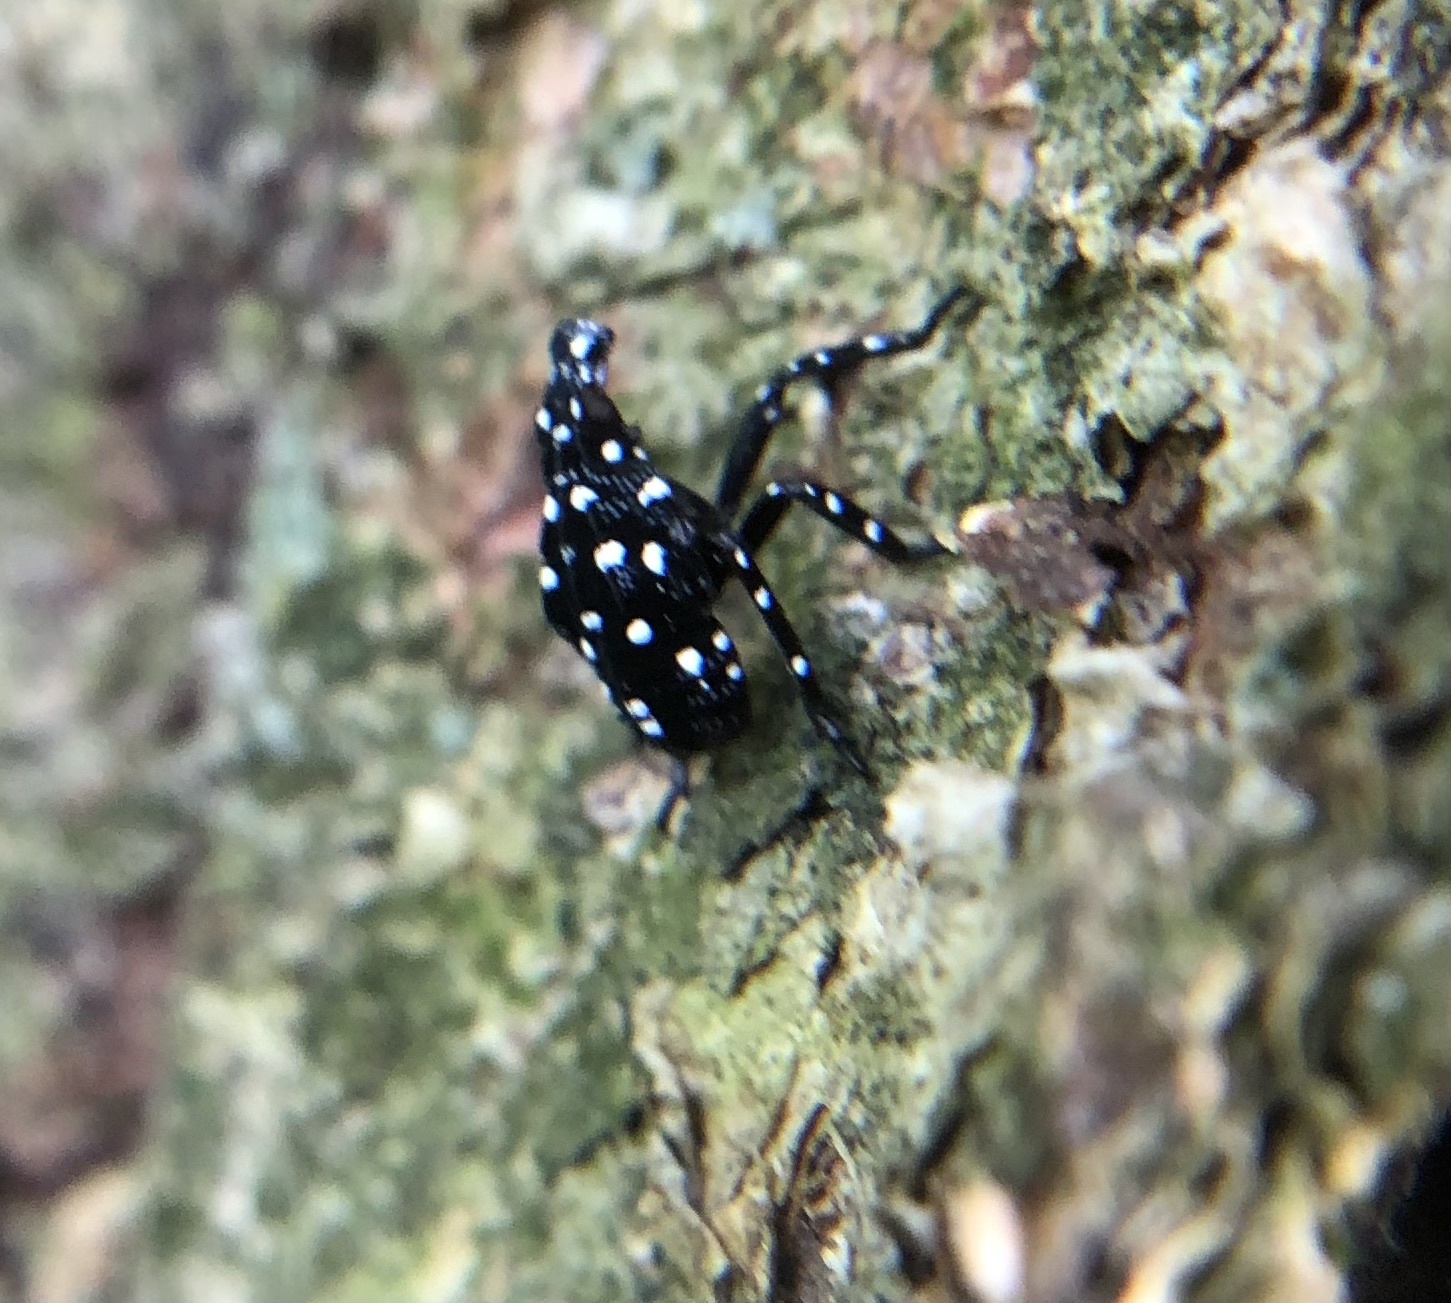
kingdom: Animalia
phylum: Arthropoda
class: Insecta
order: Hemiptera
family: Fulgoridae
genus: Lycorma
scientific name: Lycorma delicatula
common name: Spotted lanternfly
